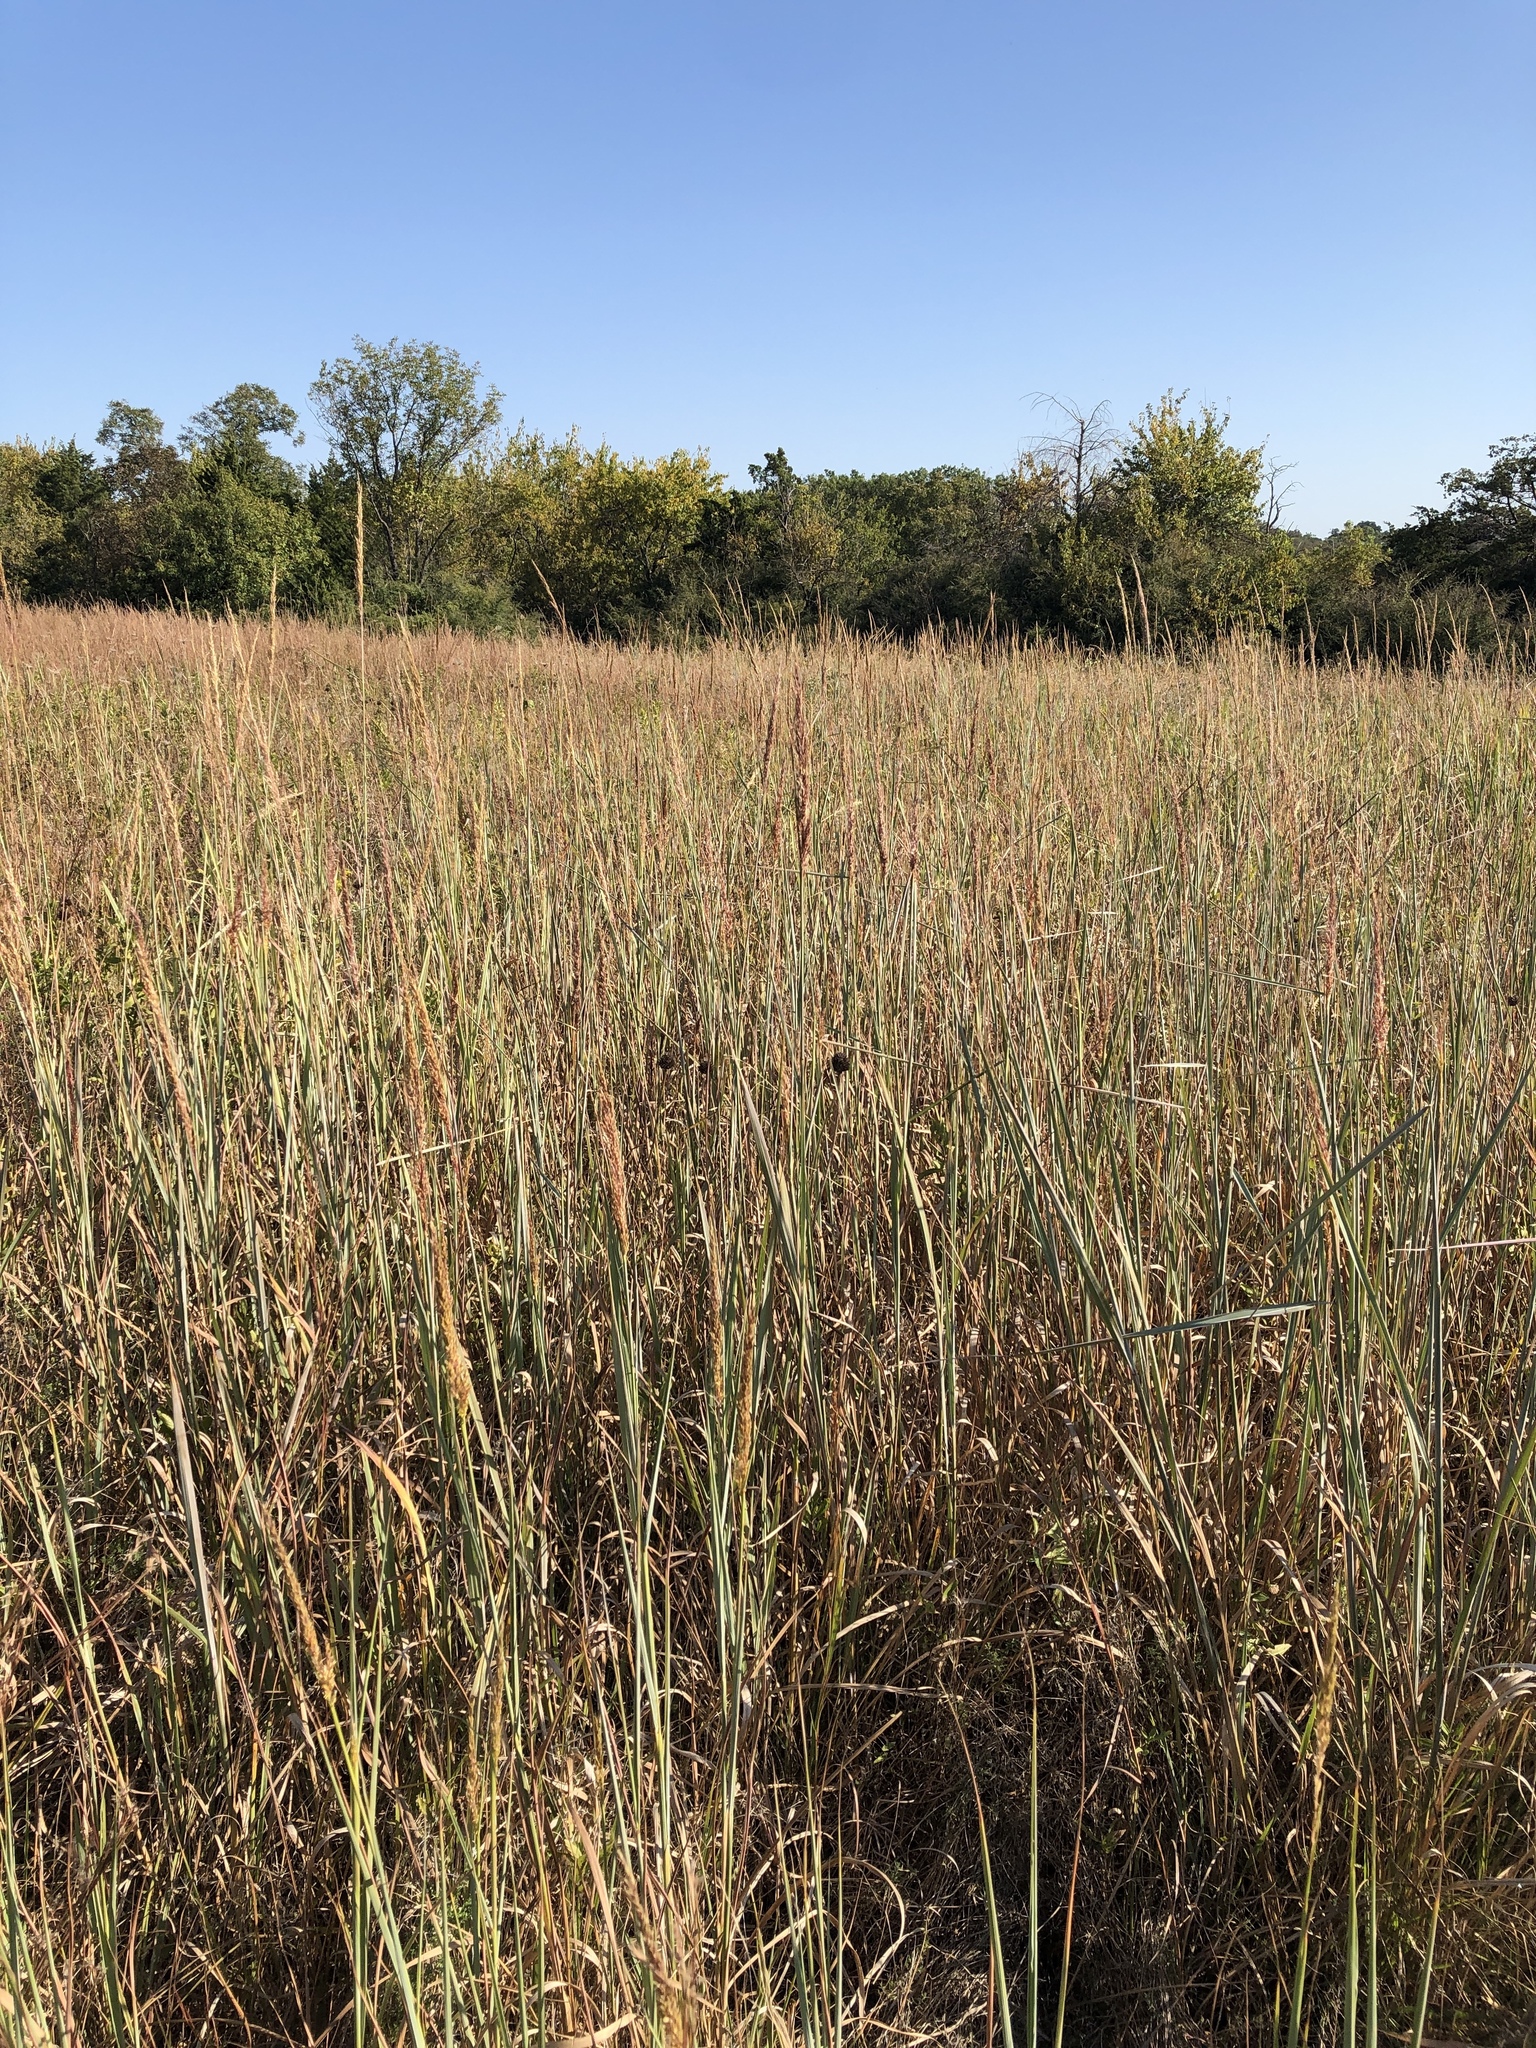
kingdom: Plantae
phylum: Tracheophyta
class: Liliopsida
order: Poales
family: Poaceae
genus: Sorghastrum
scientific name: Sorghastrum nutans
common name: Indian grass
